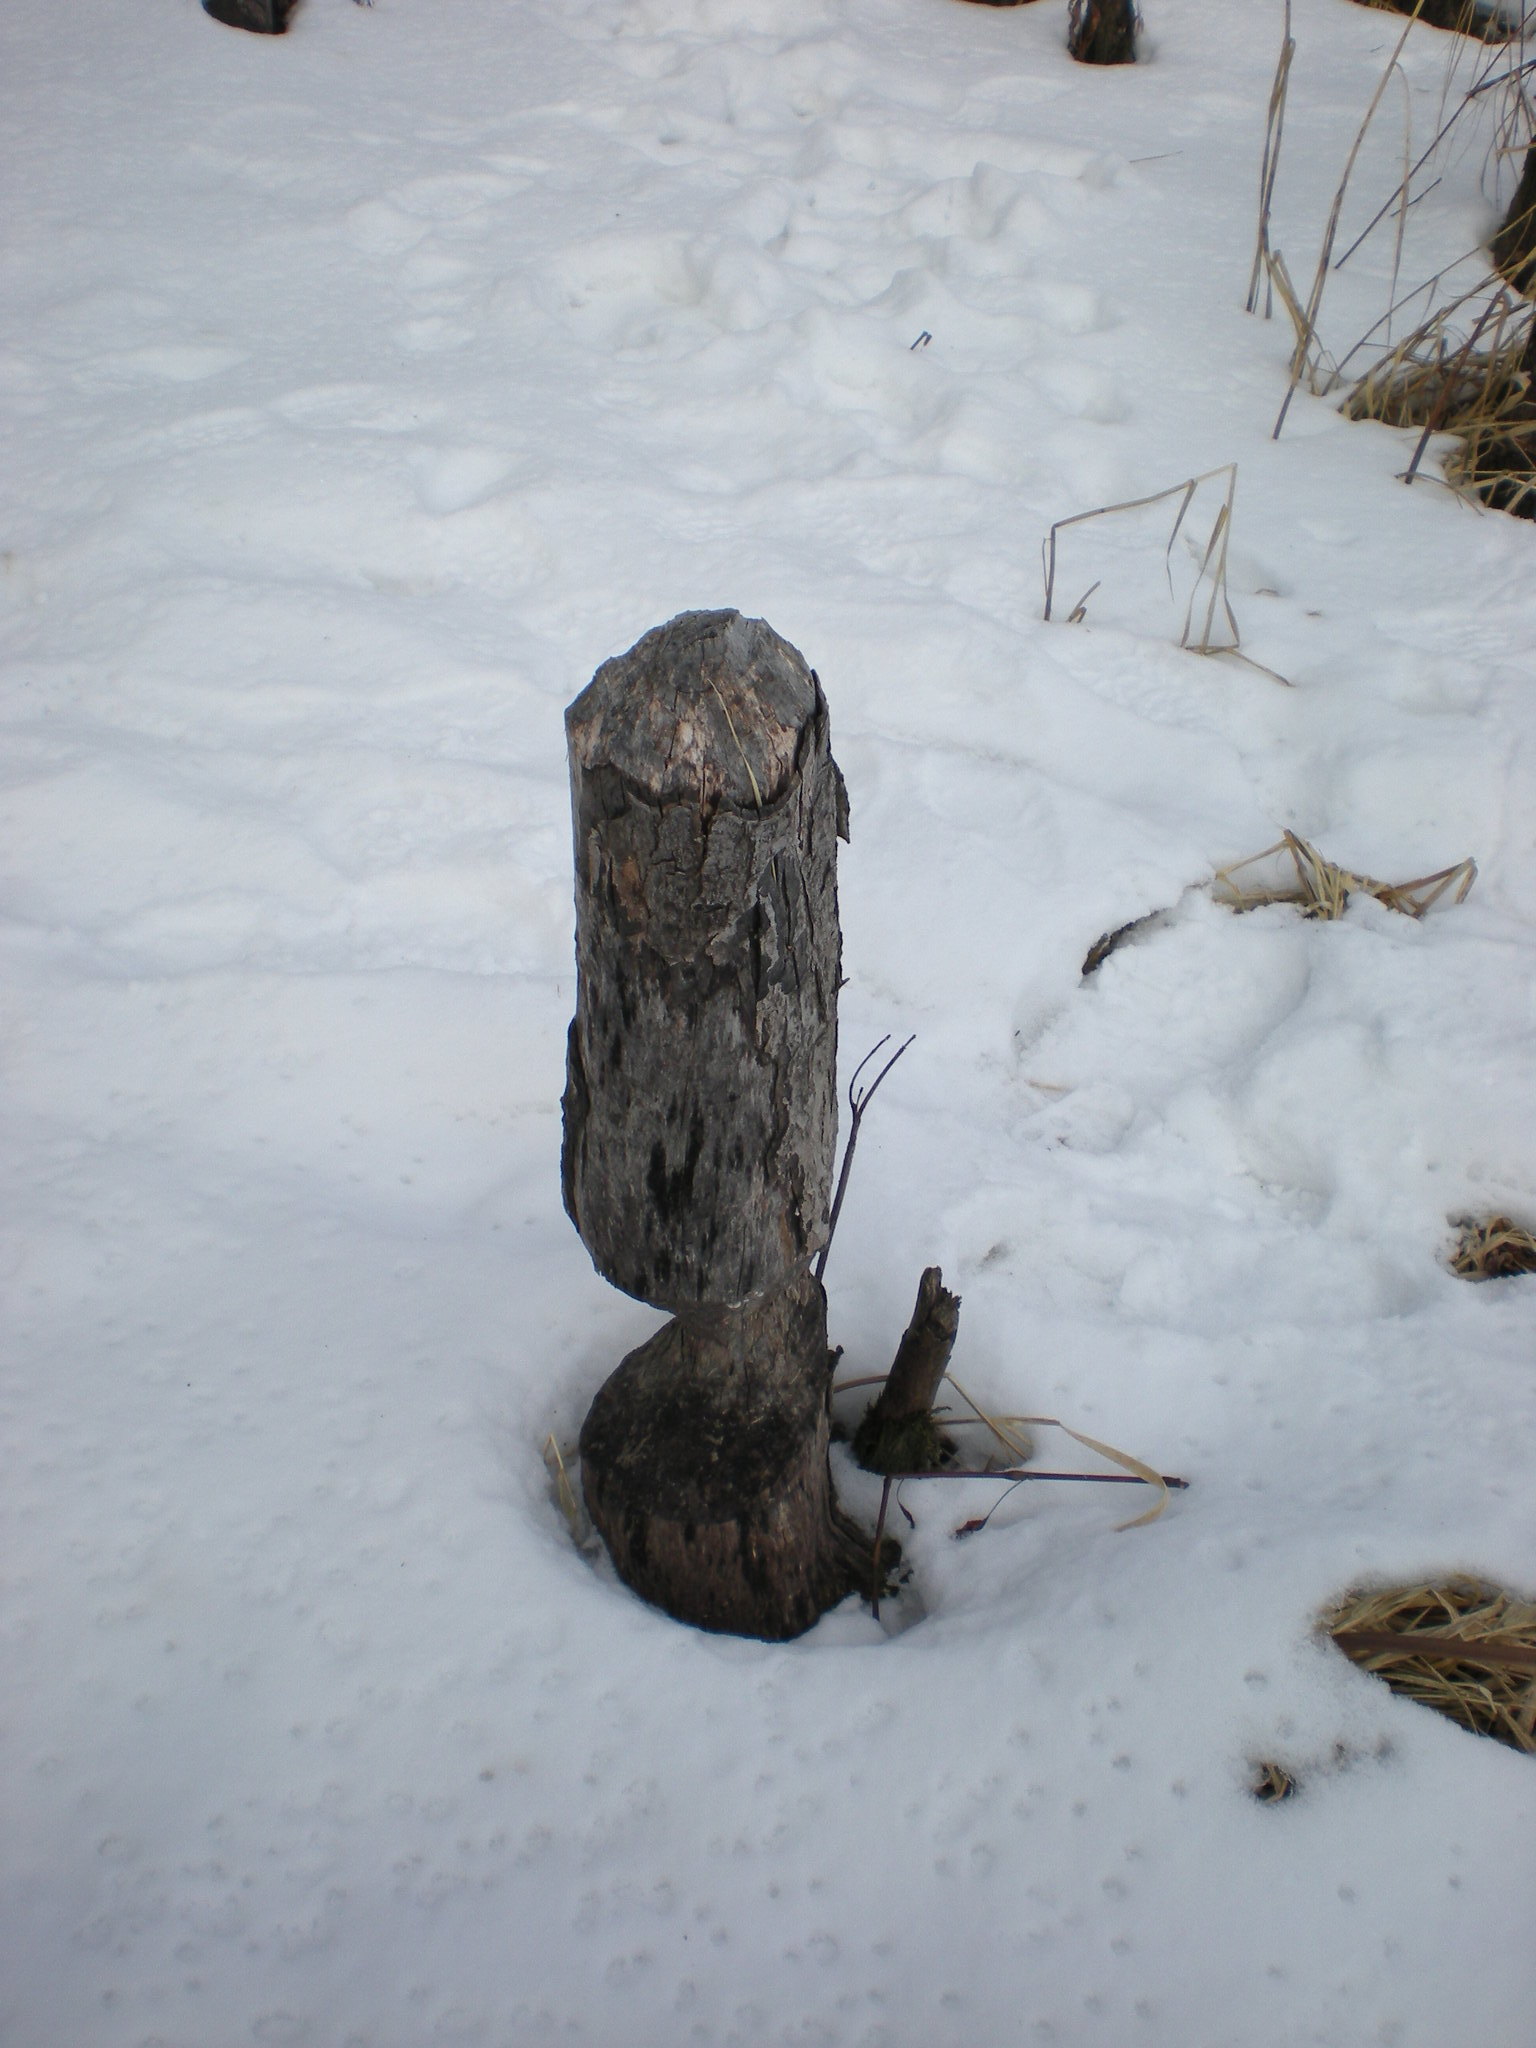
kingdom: Animalia
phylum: Chordata
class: Mammalia
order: Rodentia
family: Castoridae
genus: Castor
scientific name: Castor canadensis
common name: American beaver
